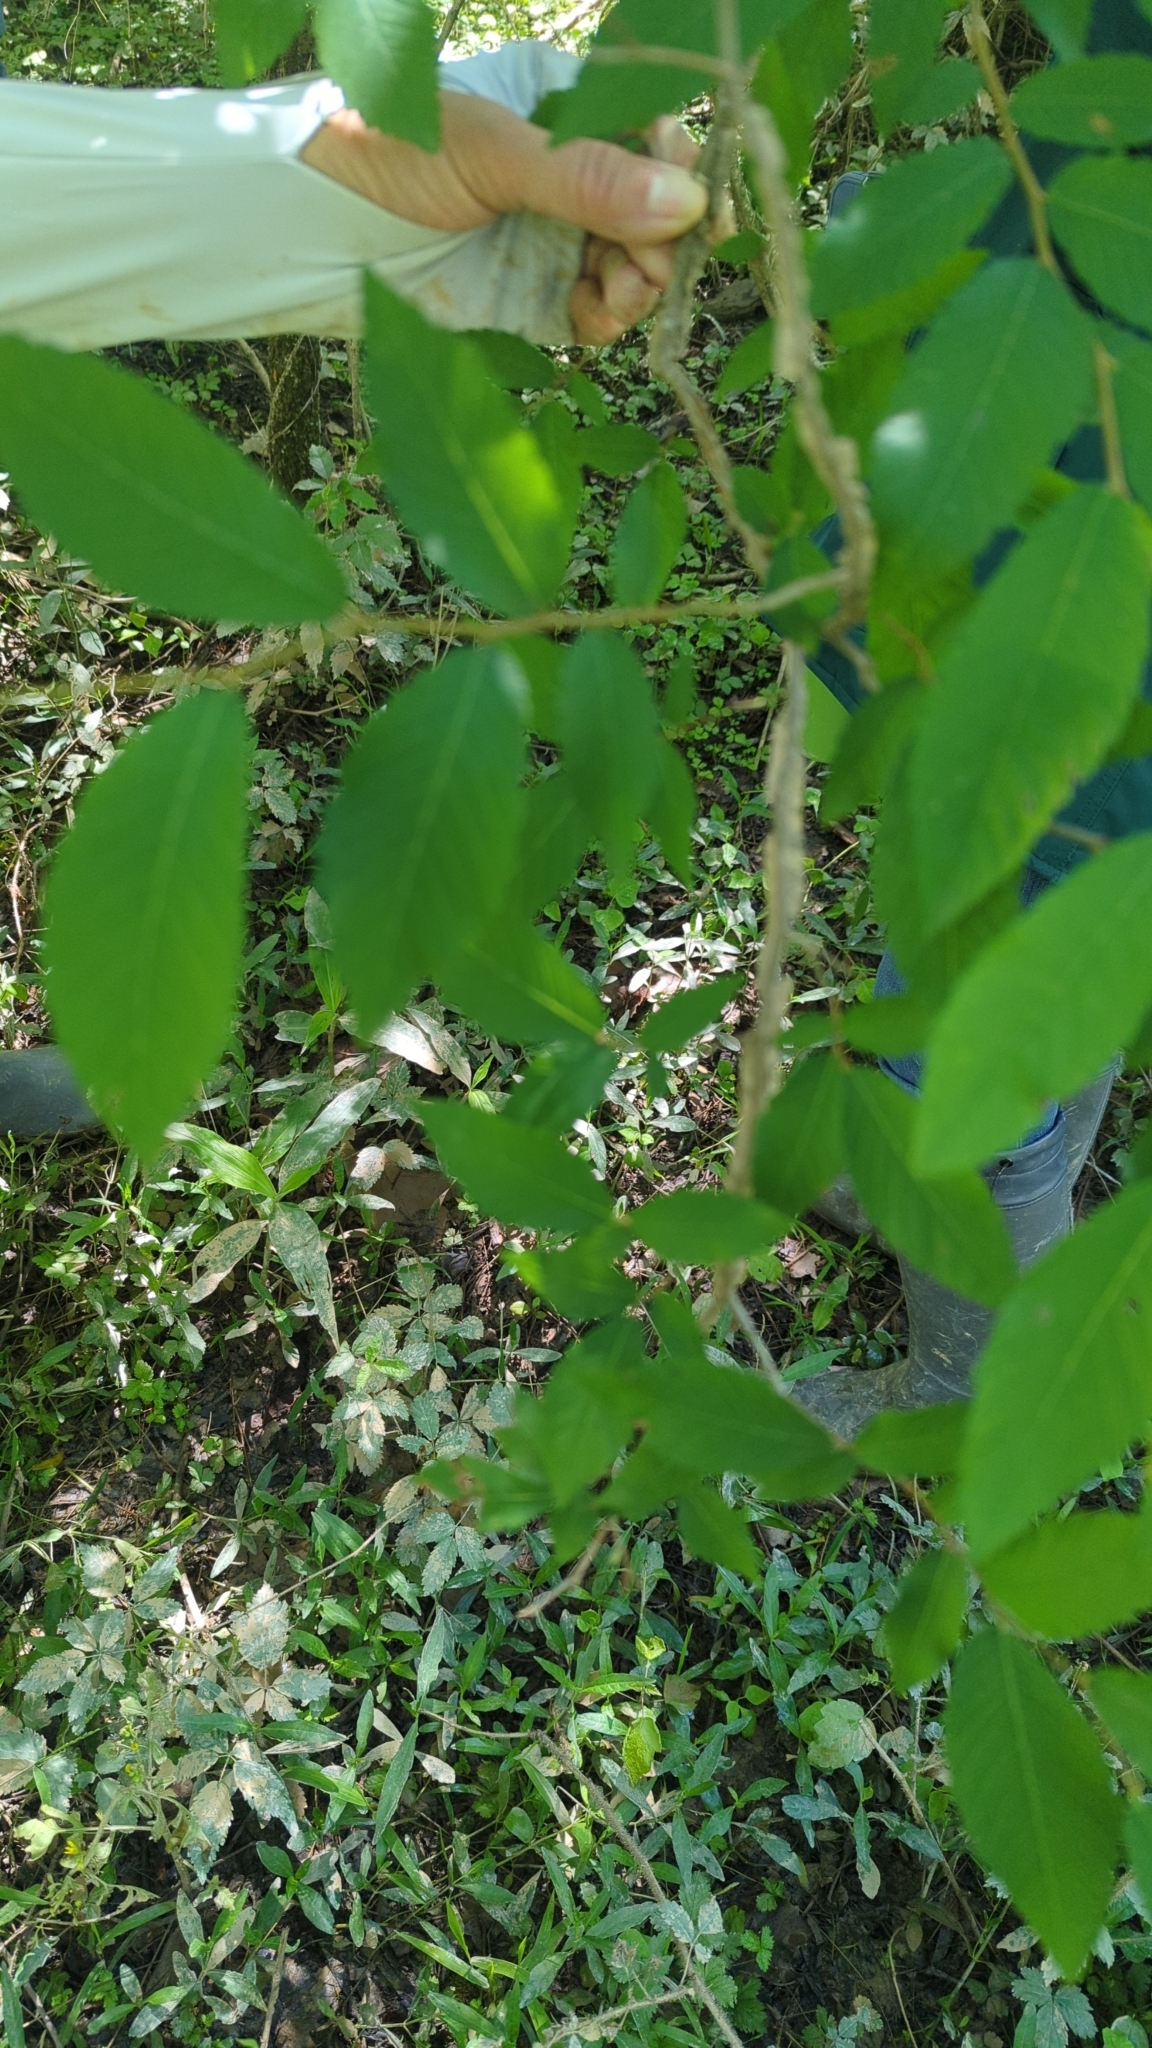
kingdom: Plantae
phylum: Tracheophyta
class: Magnoliopsida
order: Rosales
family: Ulmaceae
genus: Ulmus
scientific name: Ulmus alata
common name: Winged elm
